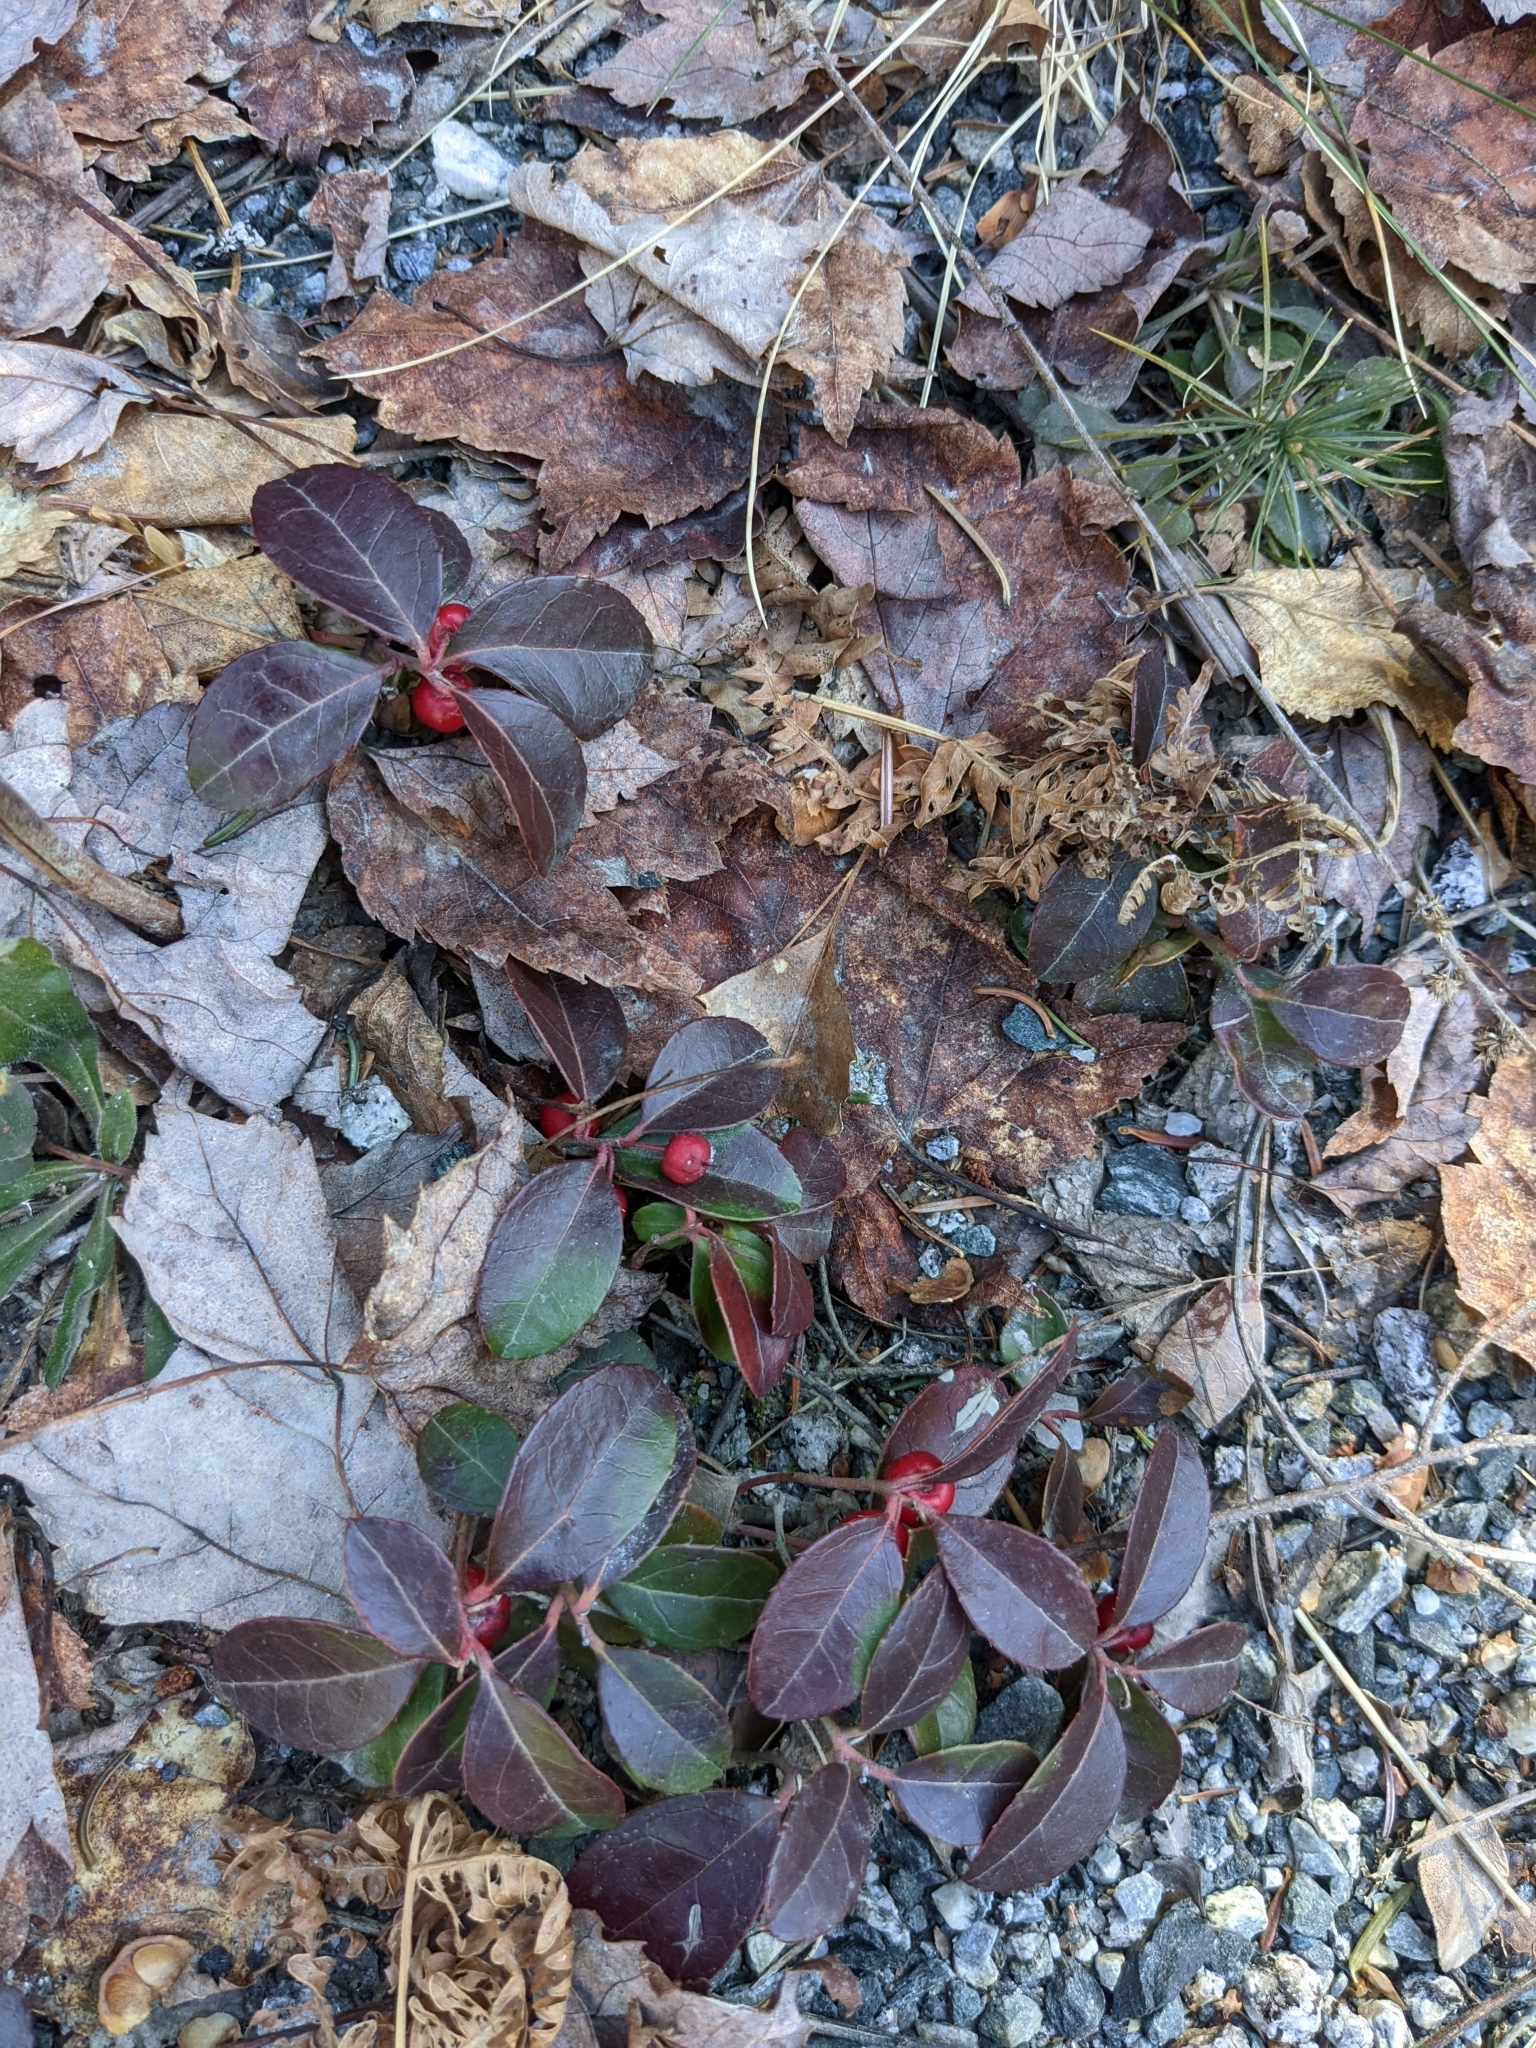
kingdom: Plantae
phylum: Tracheophyta
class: Magnoliopsida
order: Ericales
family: Ericaceae
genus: Gaultheria
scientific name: Gaultheria procumbens
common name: Checkerberry
